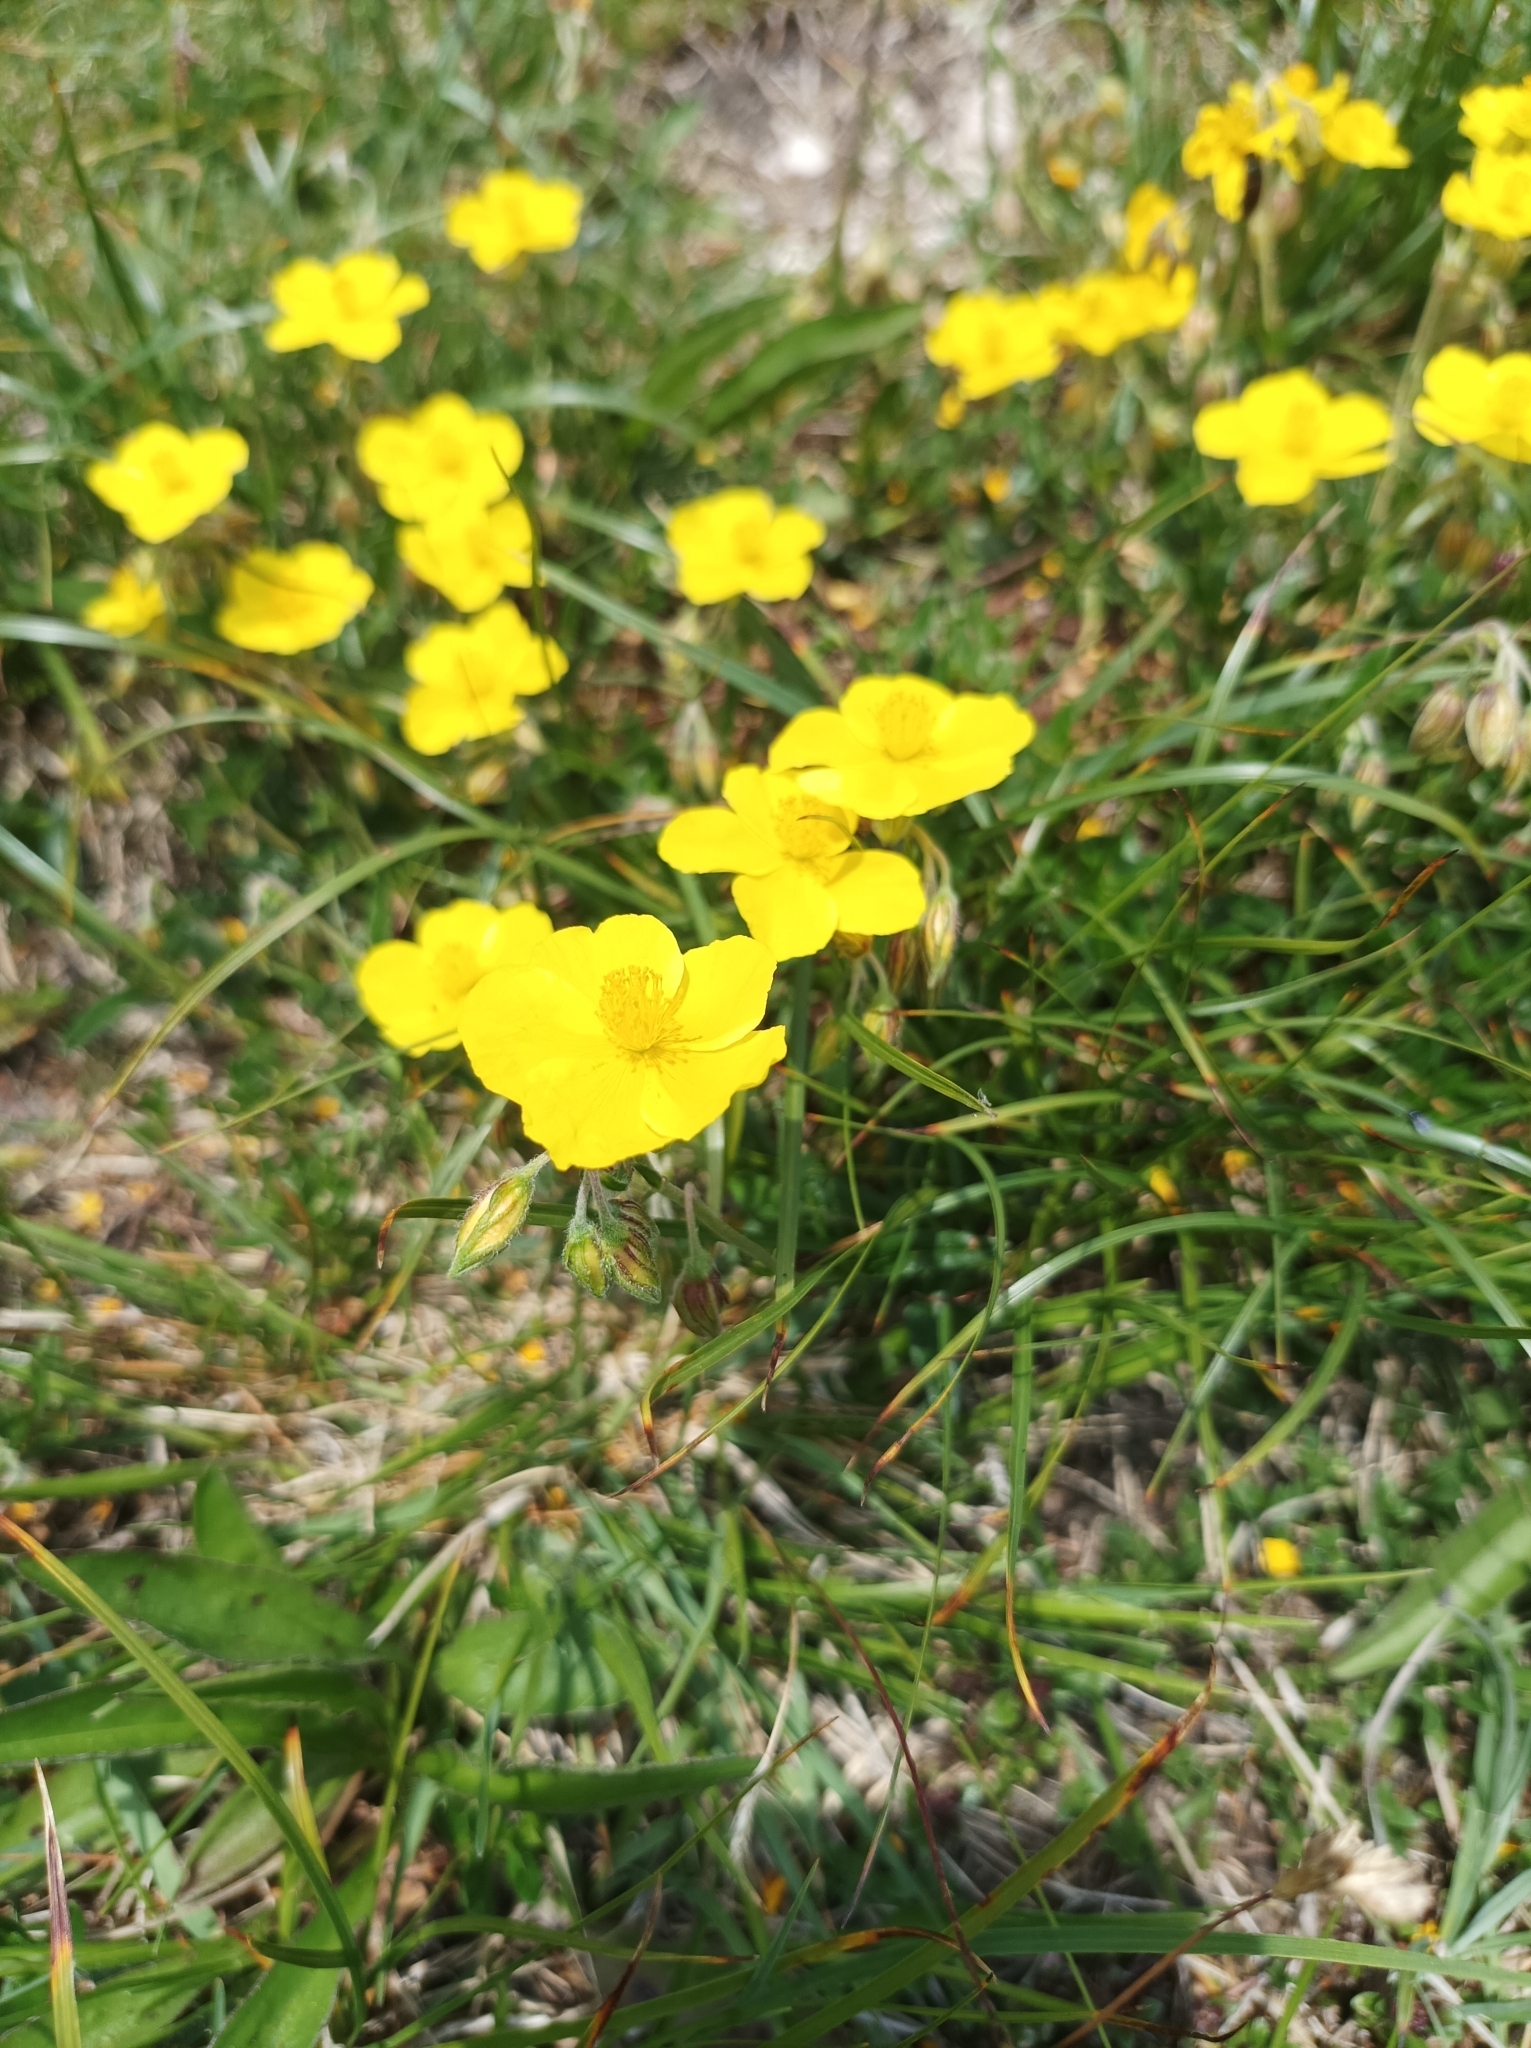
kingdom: Plantae
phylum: Tracheophyta
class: Magnoliopsida
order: Malvales
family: Cistaceae
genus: Helianthemum
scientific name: Helianthemum nummularium
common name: Common rock-rose
